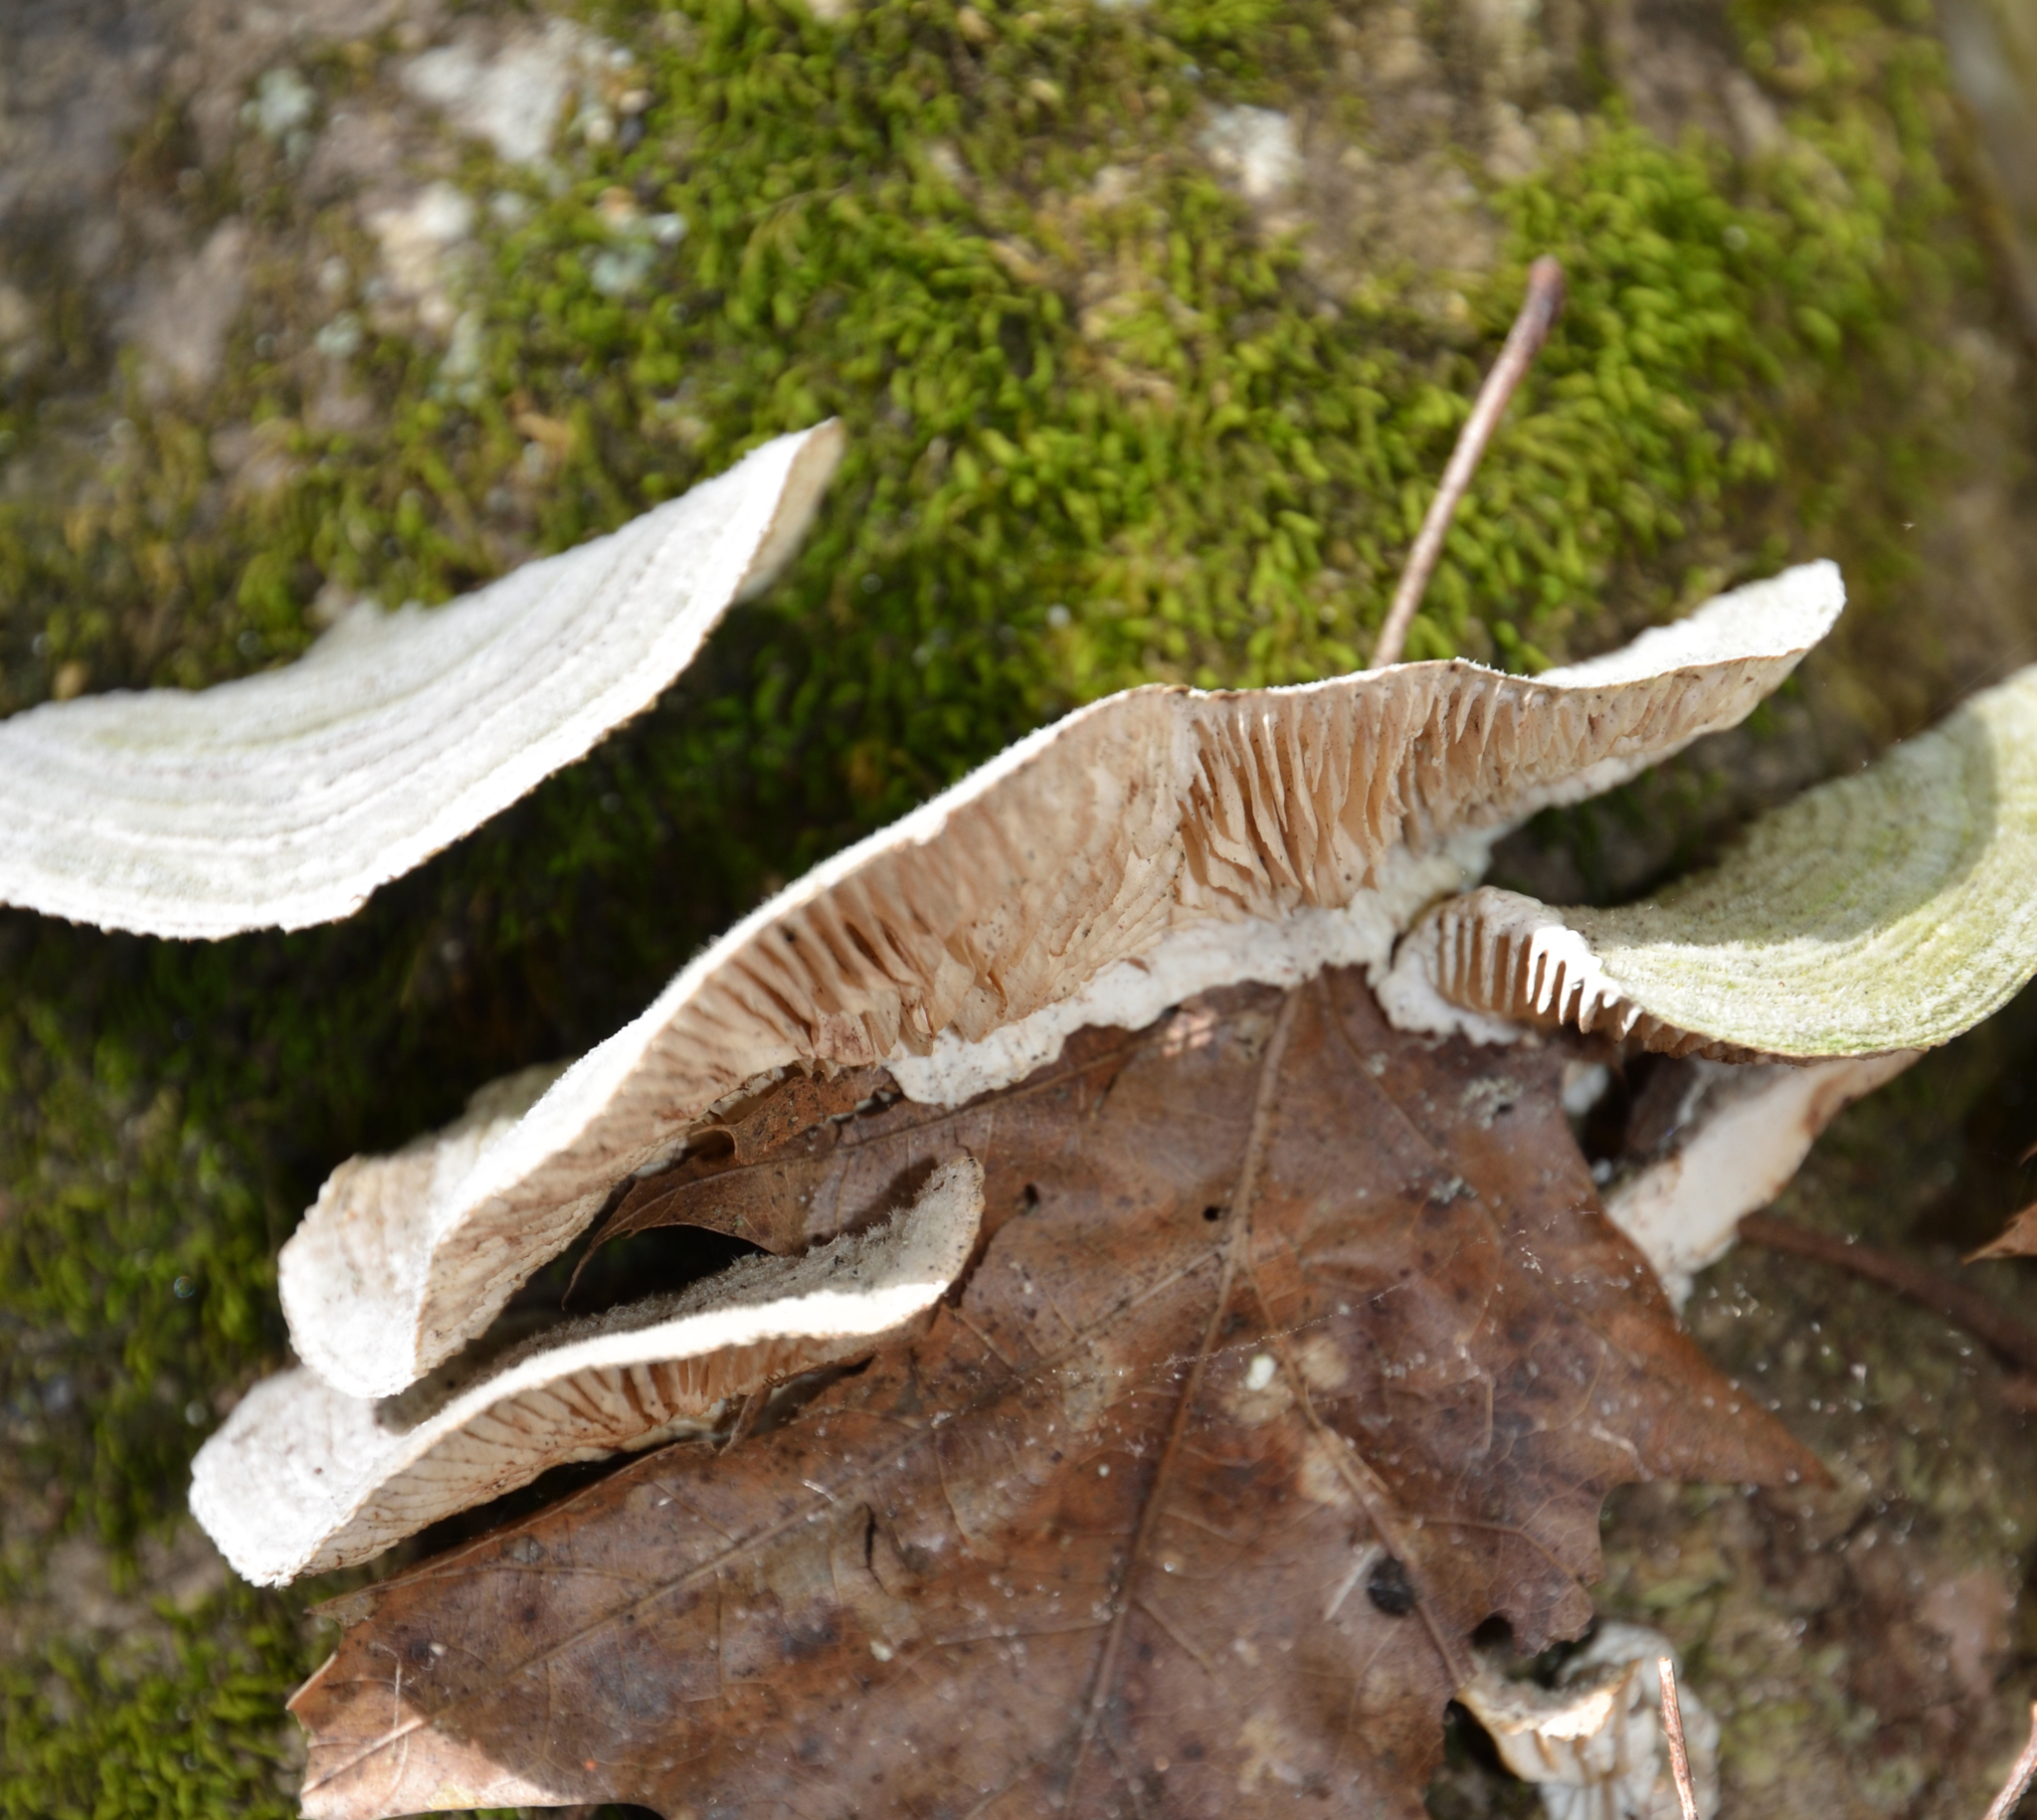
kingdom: Fungi
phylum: Basidiomycota
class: Agaricomycetes
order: Polyporales
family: Polyporaceae
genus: Lenzites
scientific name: Lenzites betulinus
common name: Birch mazegill
